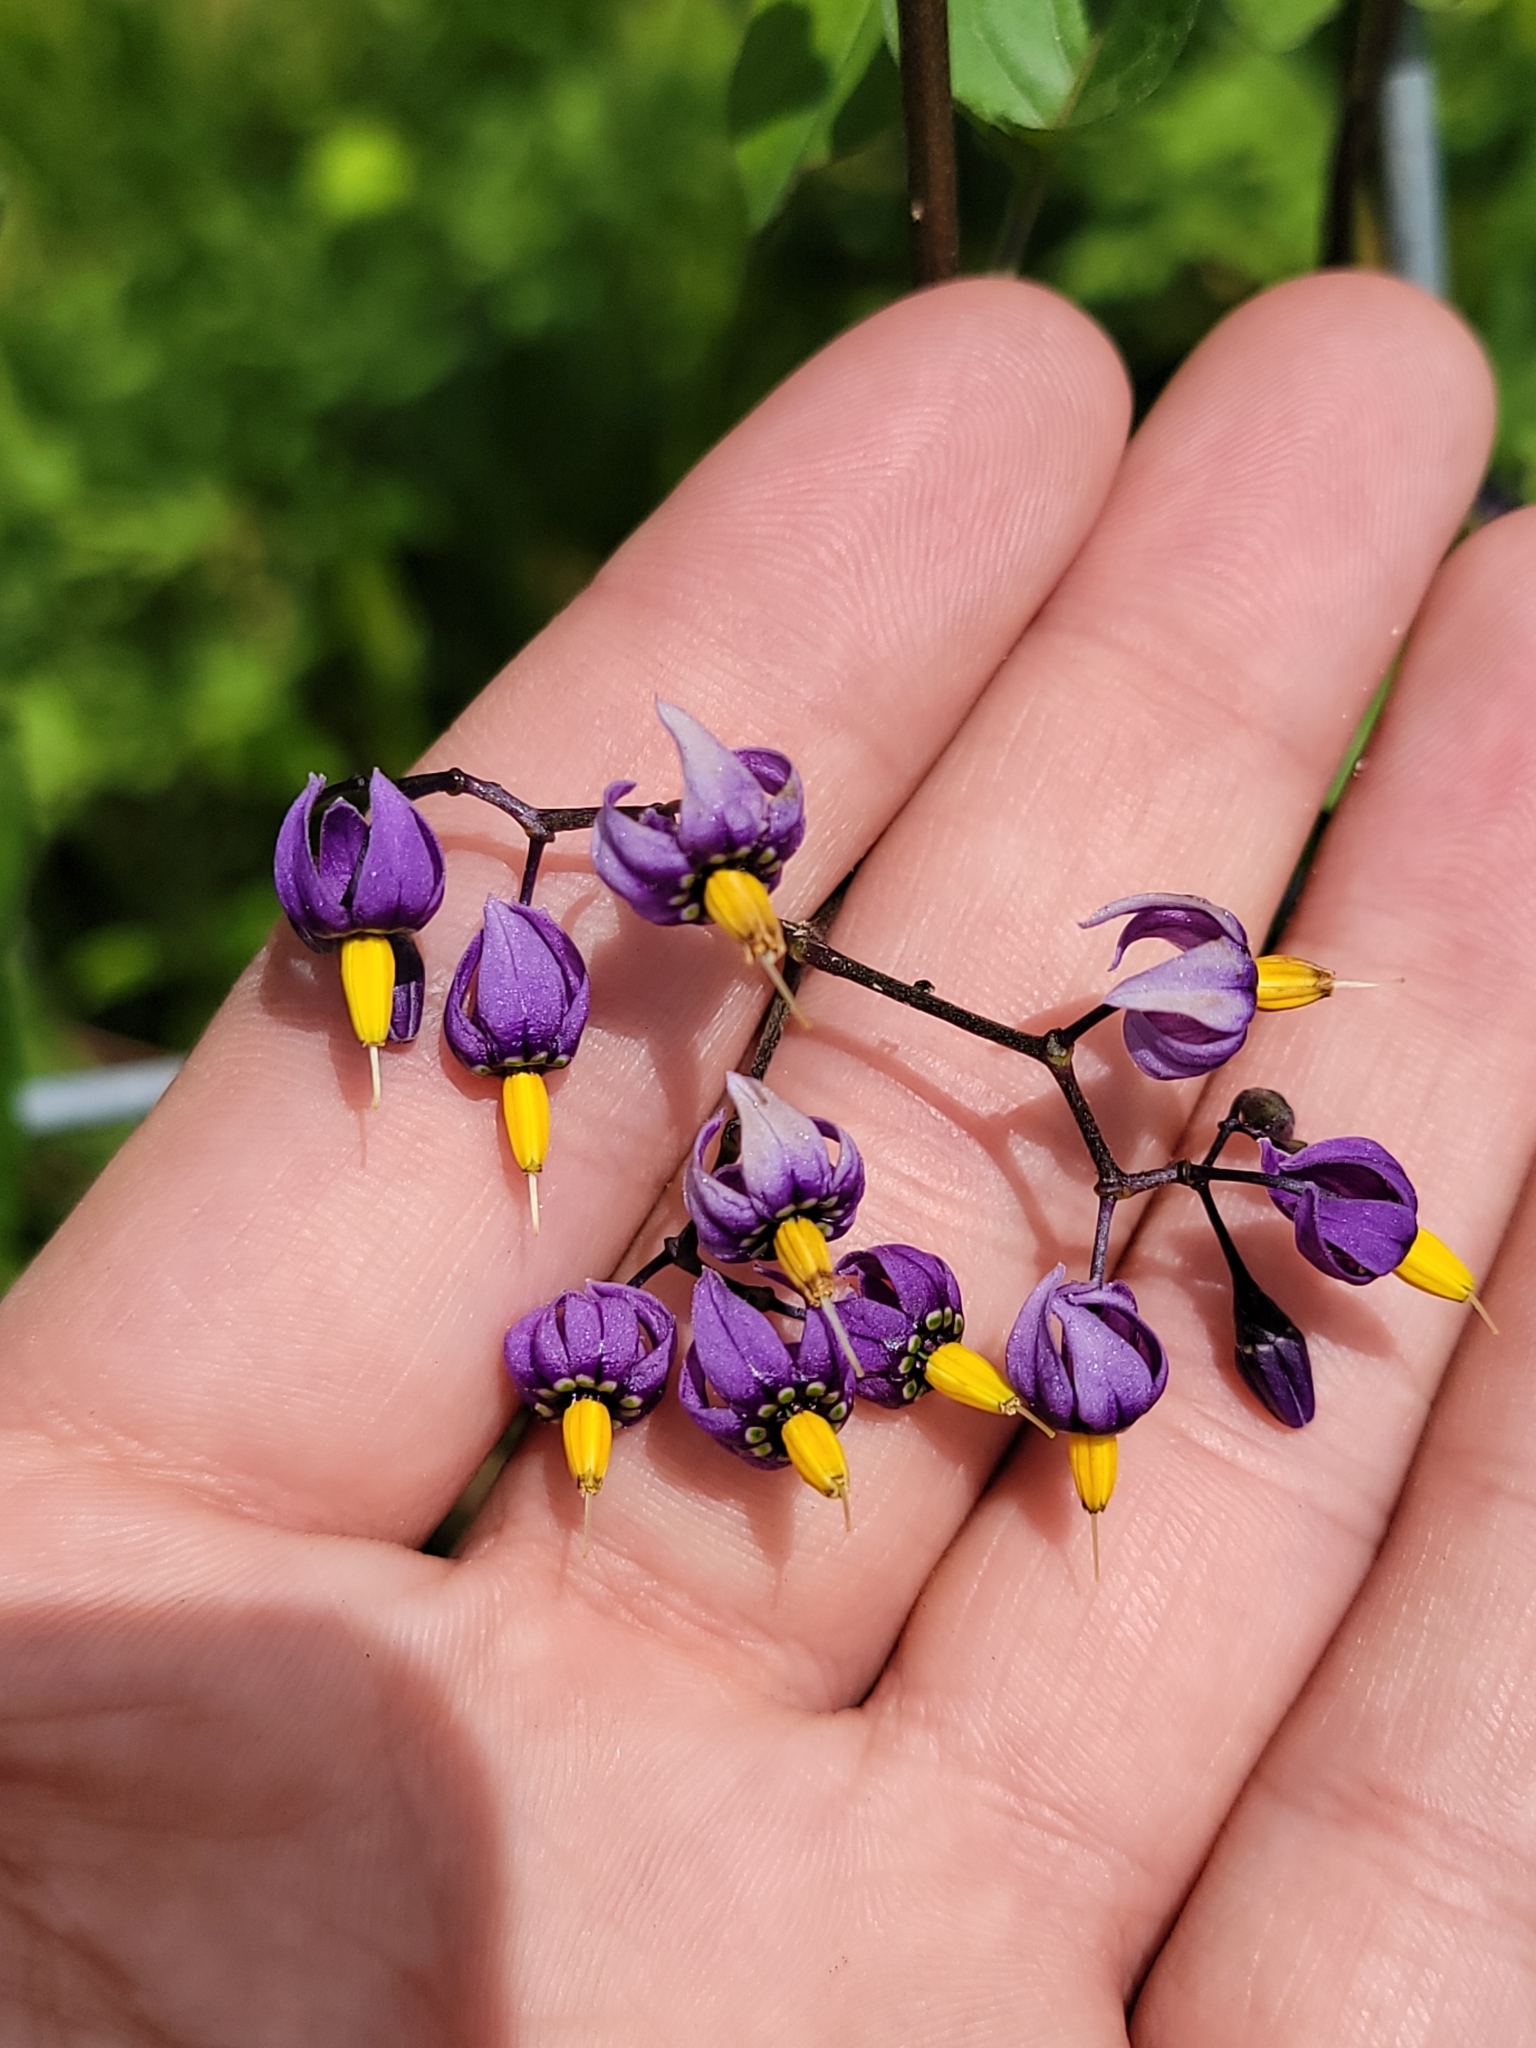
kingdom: Plantae
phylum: Tracheophyta
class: Magnoliopsida
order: Solanales
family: Solanaceae
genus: Solanum
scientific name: Solanum dulcamara
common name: Climbing nightshade
